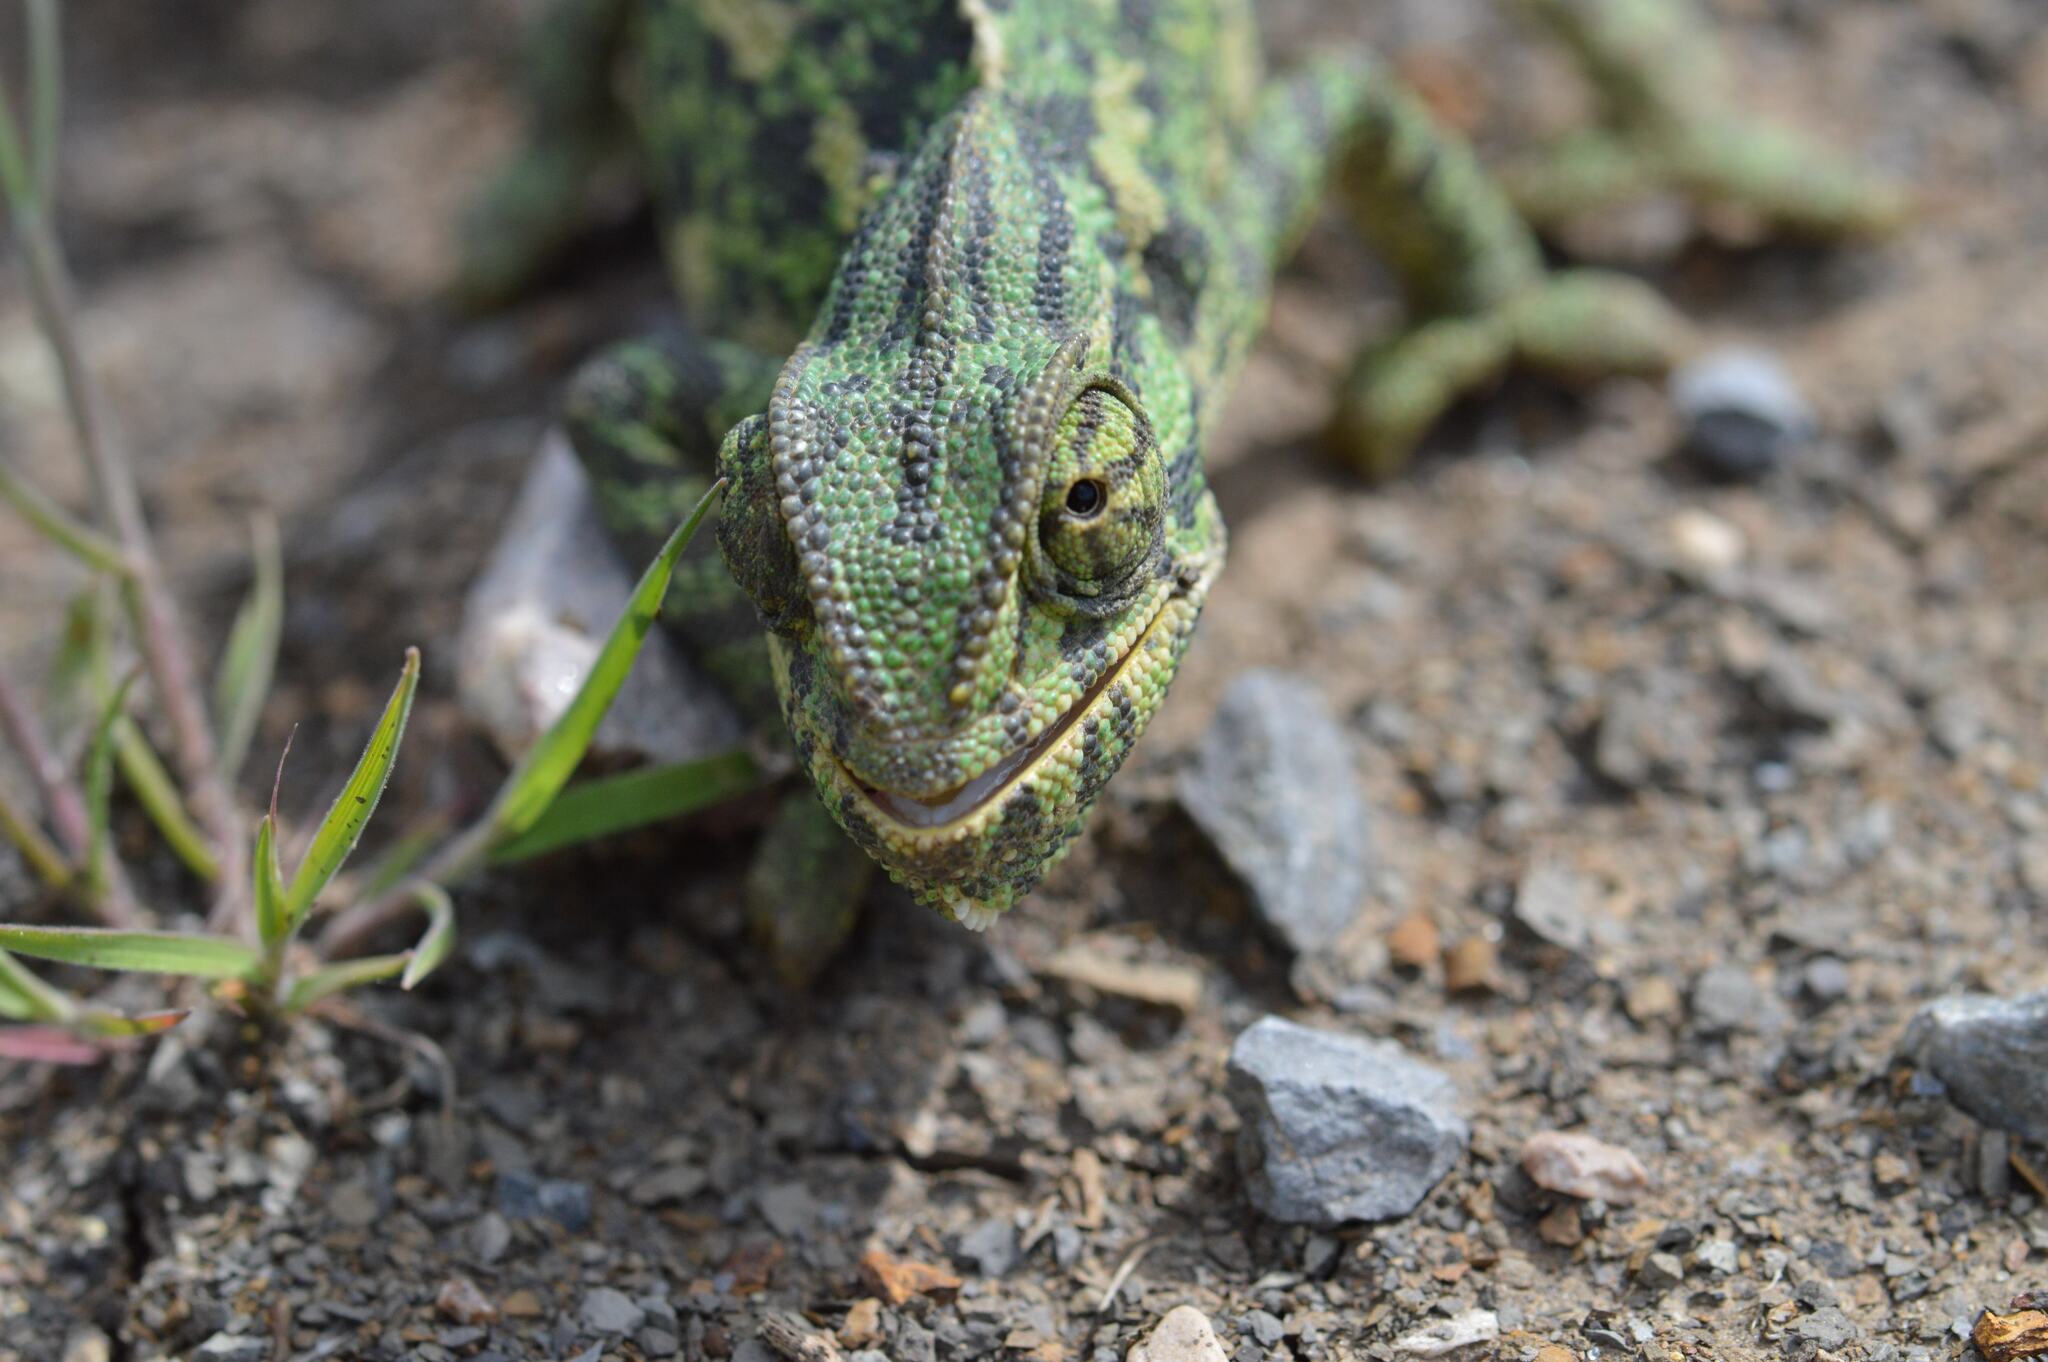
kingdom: Animalia
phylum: Chordata
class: Squamata
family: Chamaeleonidae
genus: Chamaeleo
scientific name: Chamaeleo chamaeleon
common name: Mediterranean chameleon
